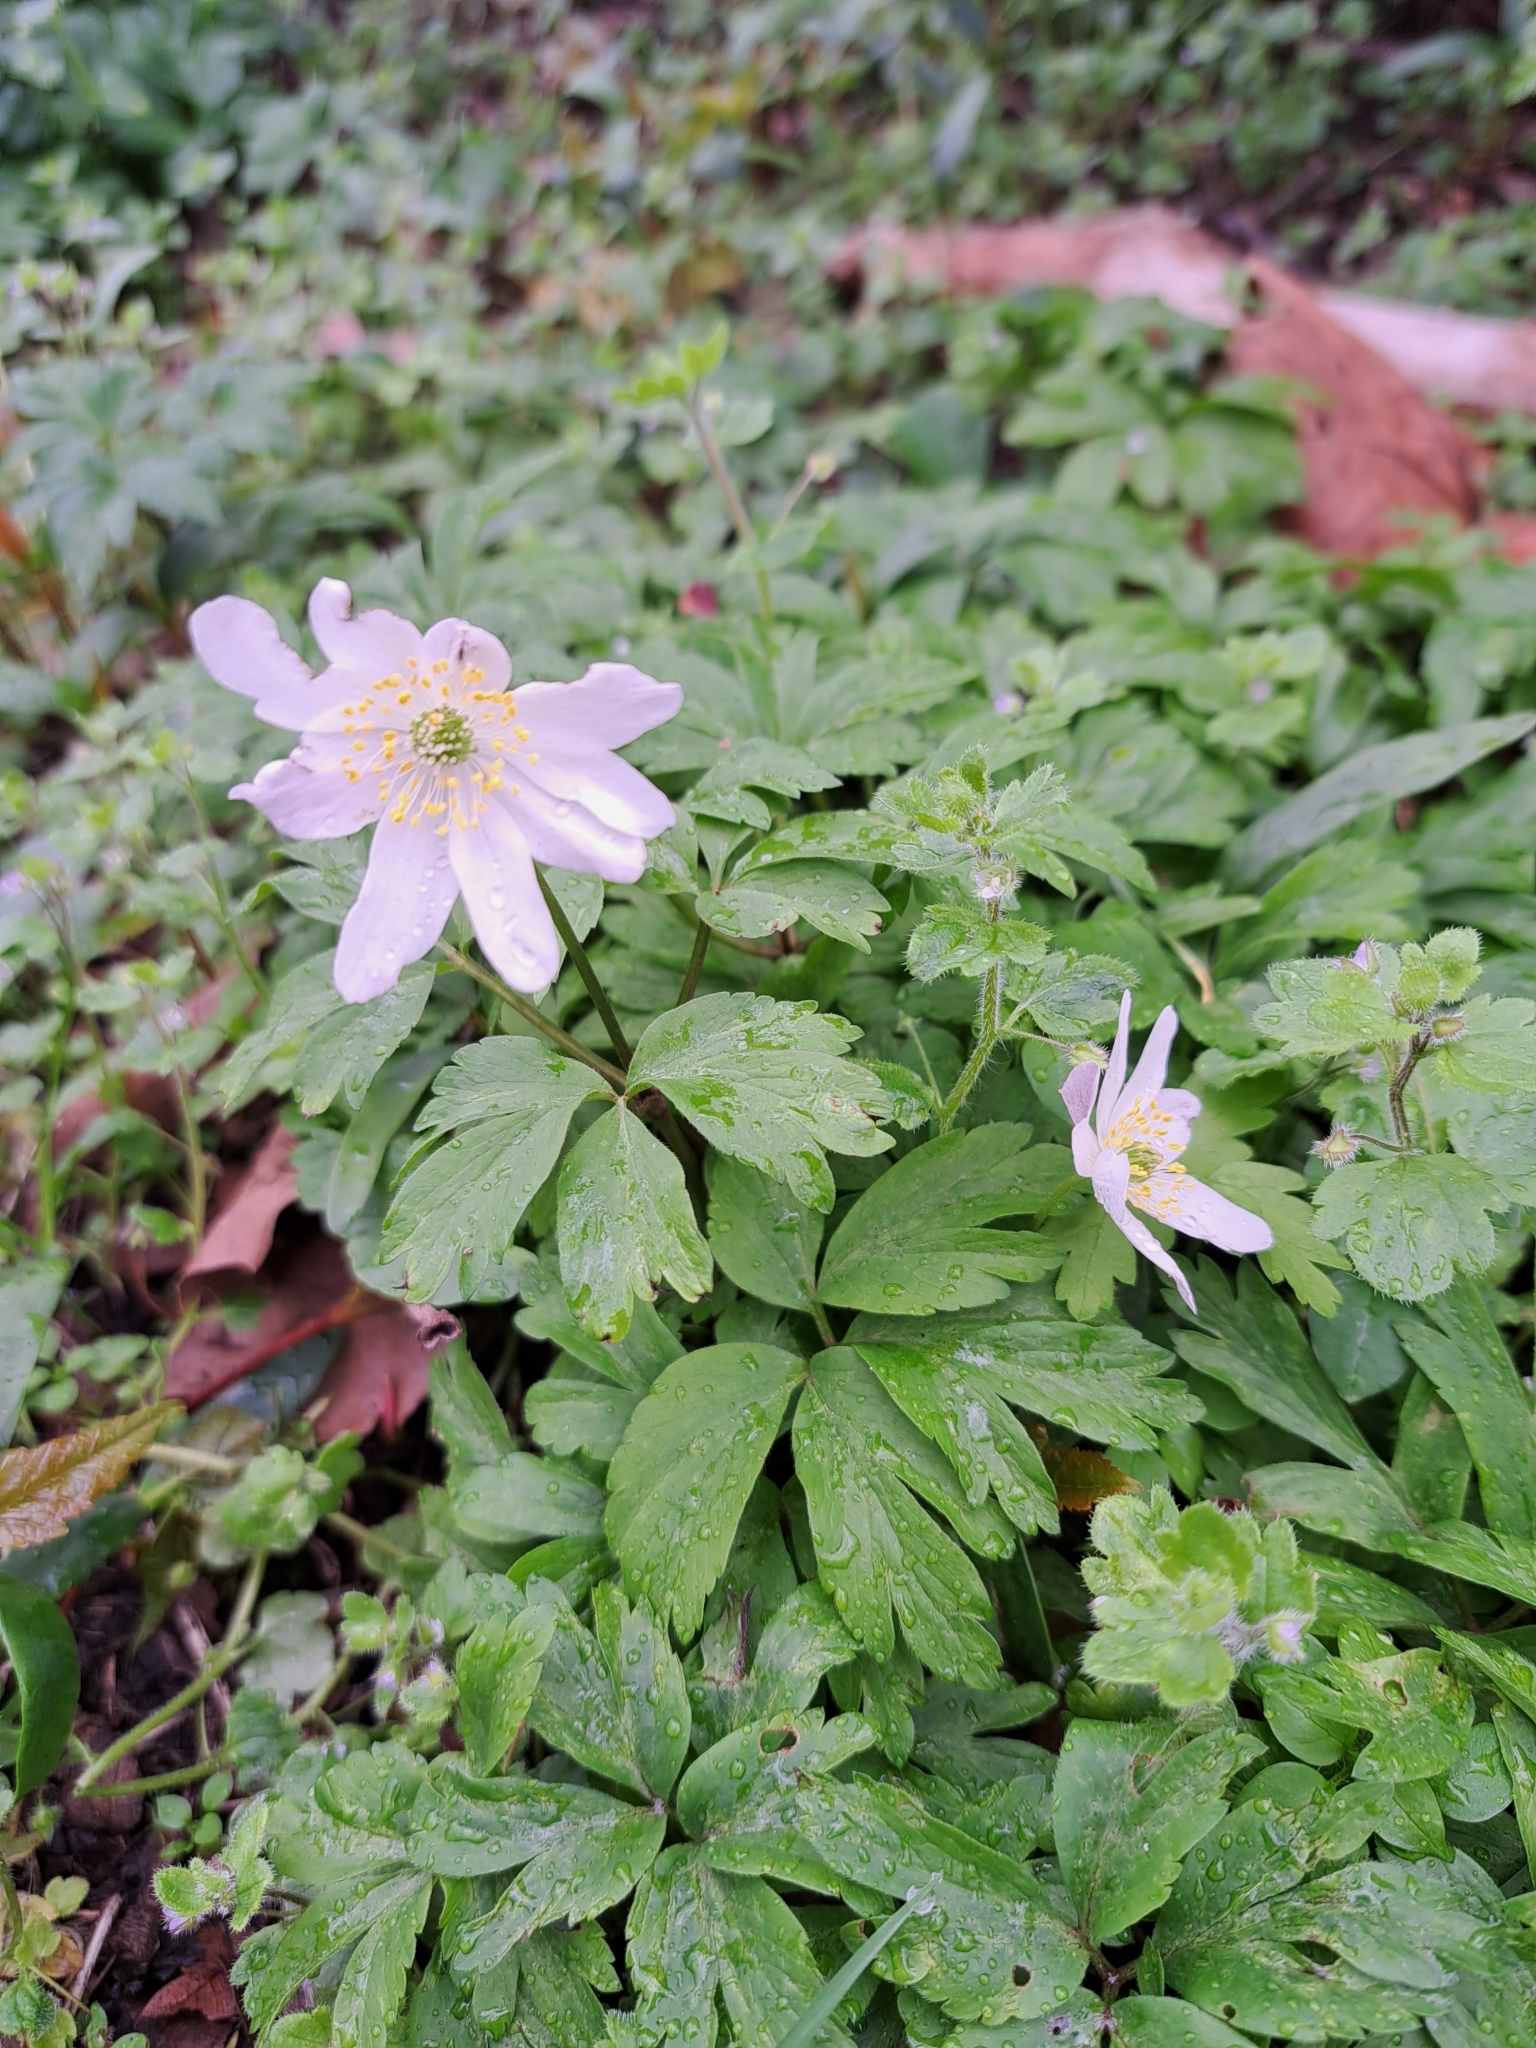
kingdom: Plantae
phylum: Tracheophyta
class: Magnoliopsida
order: Ranunculales
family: Ranunculaceae
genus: Anemone
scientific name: Anemone nemorosa
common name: Wood anemone
